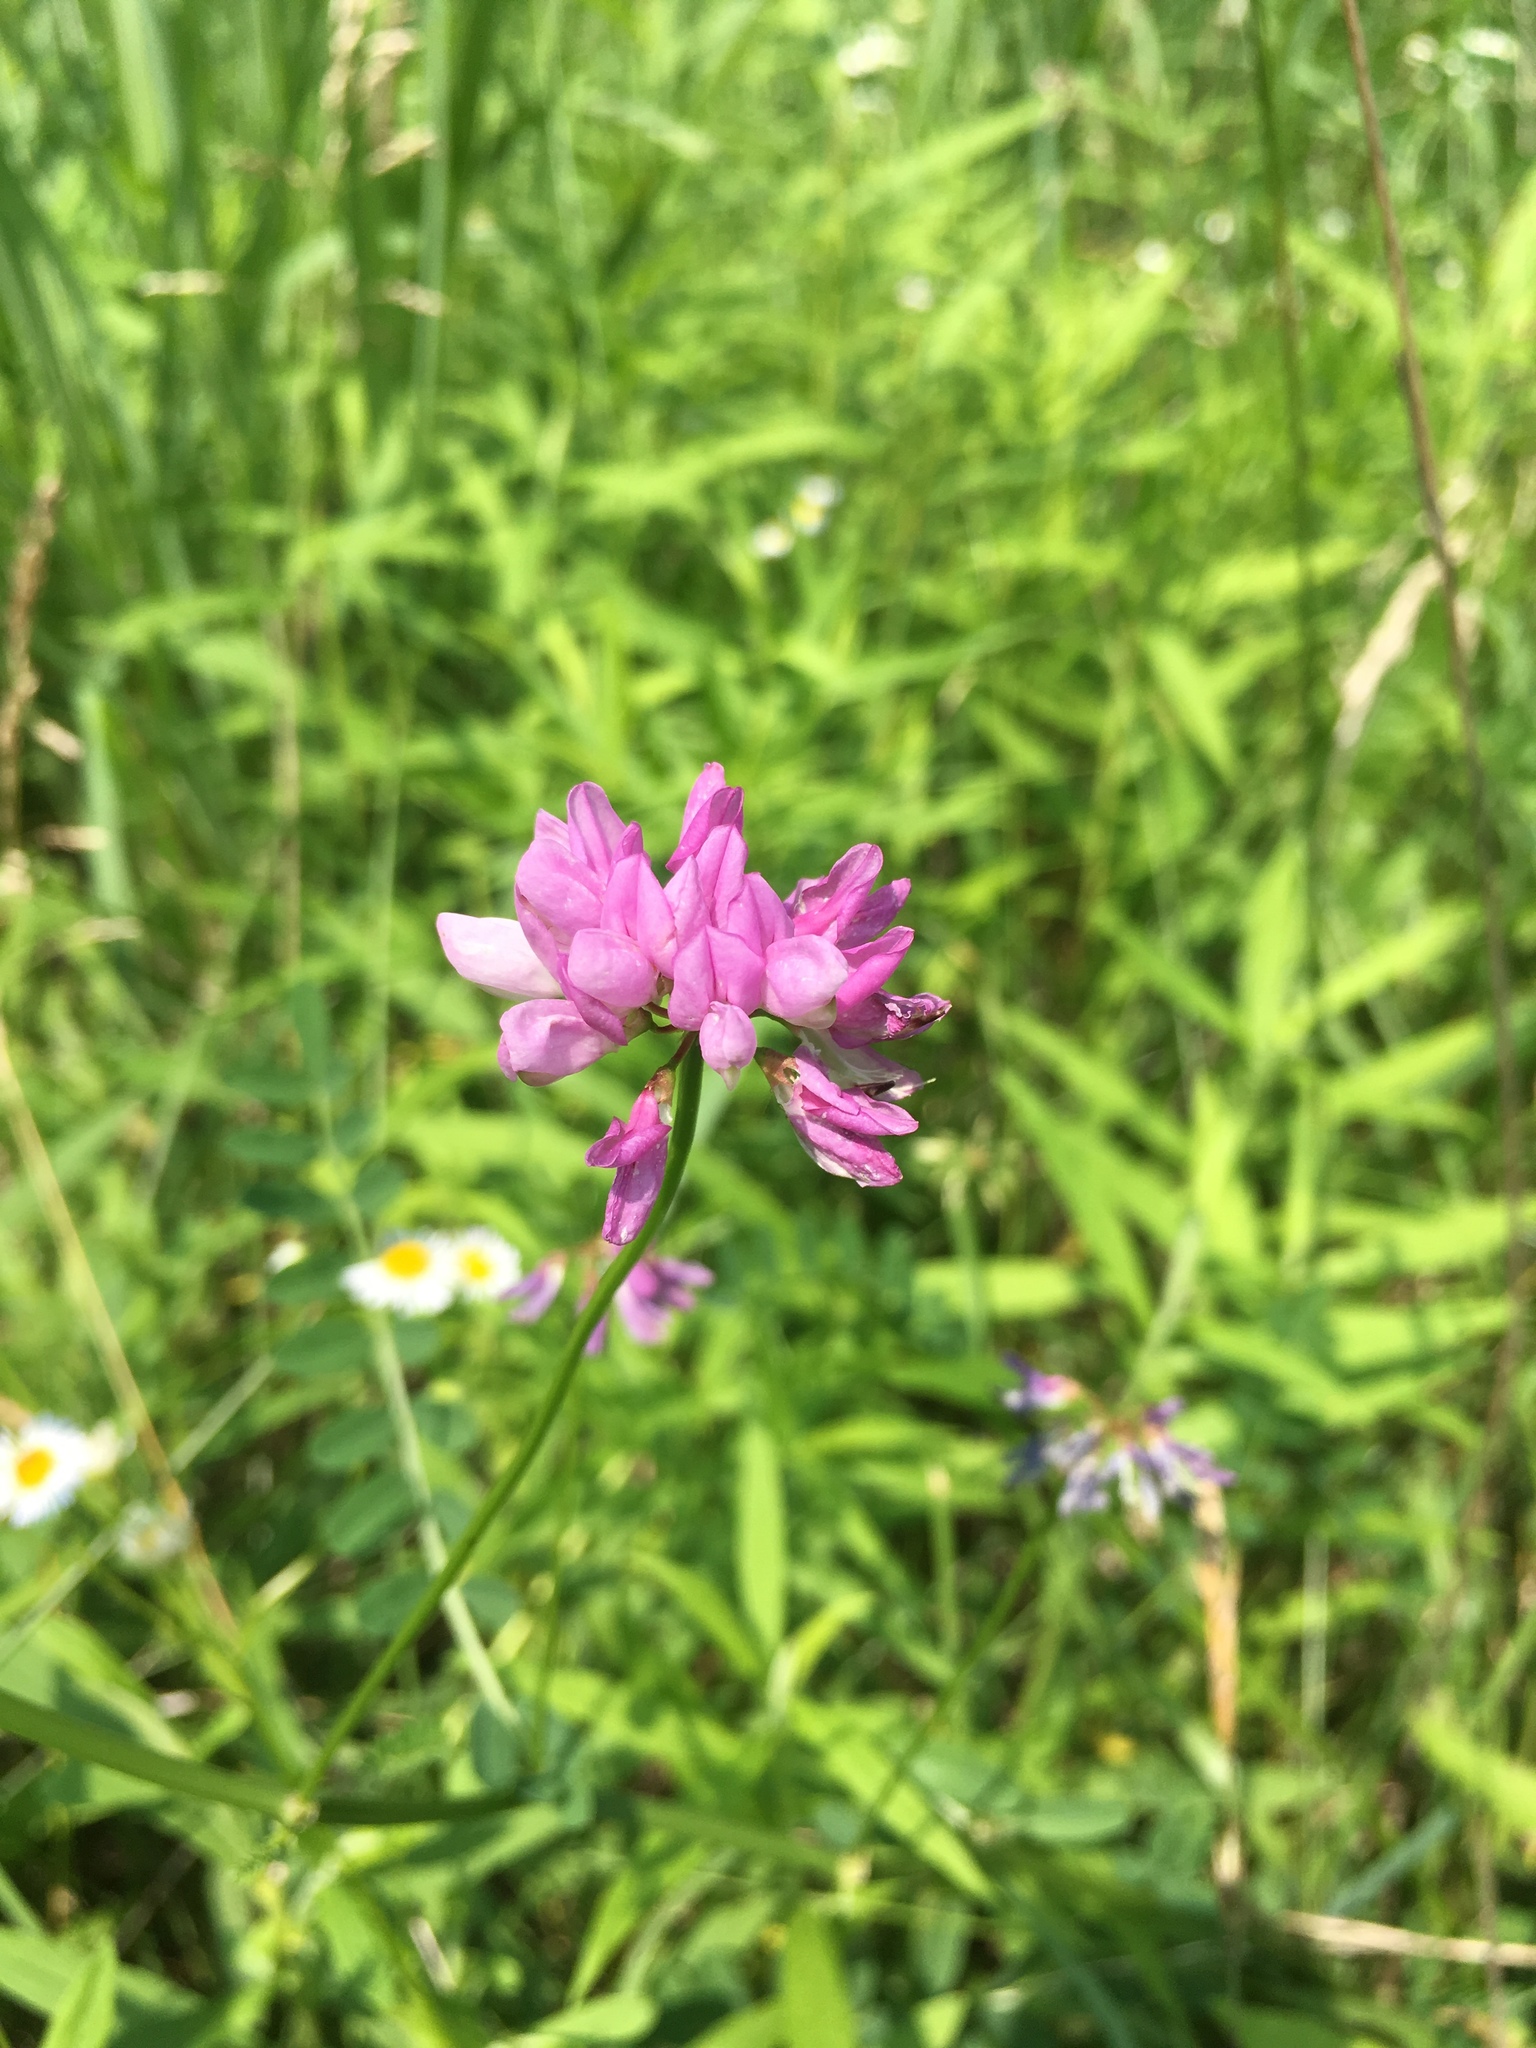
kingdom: Plantae
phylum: Tracheophyta
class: Magnoliopsida
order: Fabales
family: Fabaceae
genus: Coronilla
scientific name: Coronilla varia
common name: Crownvetch
